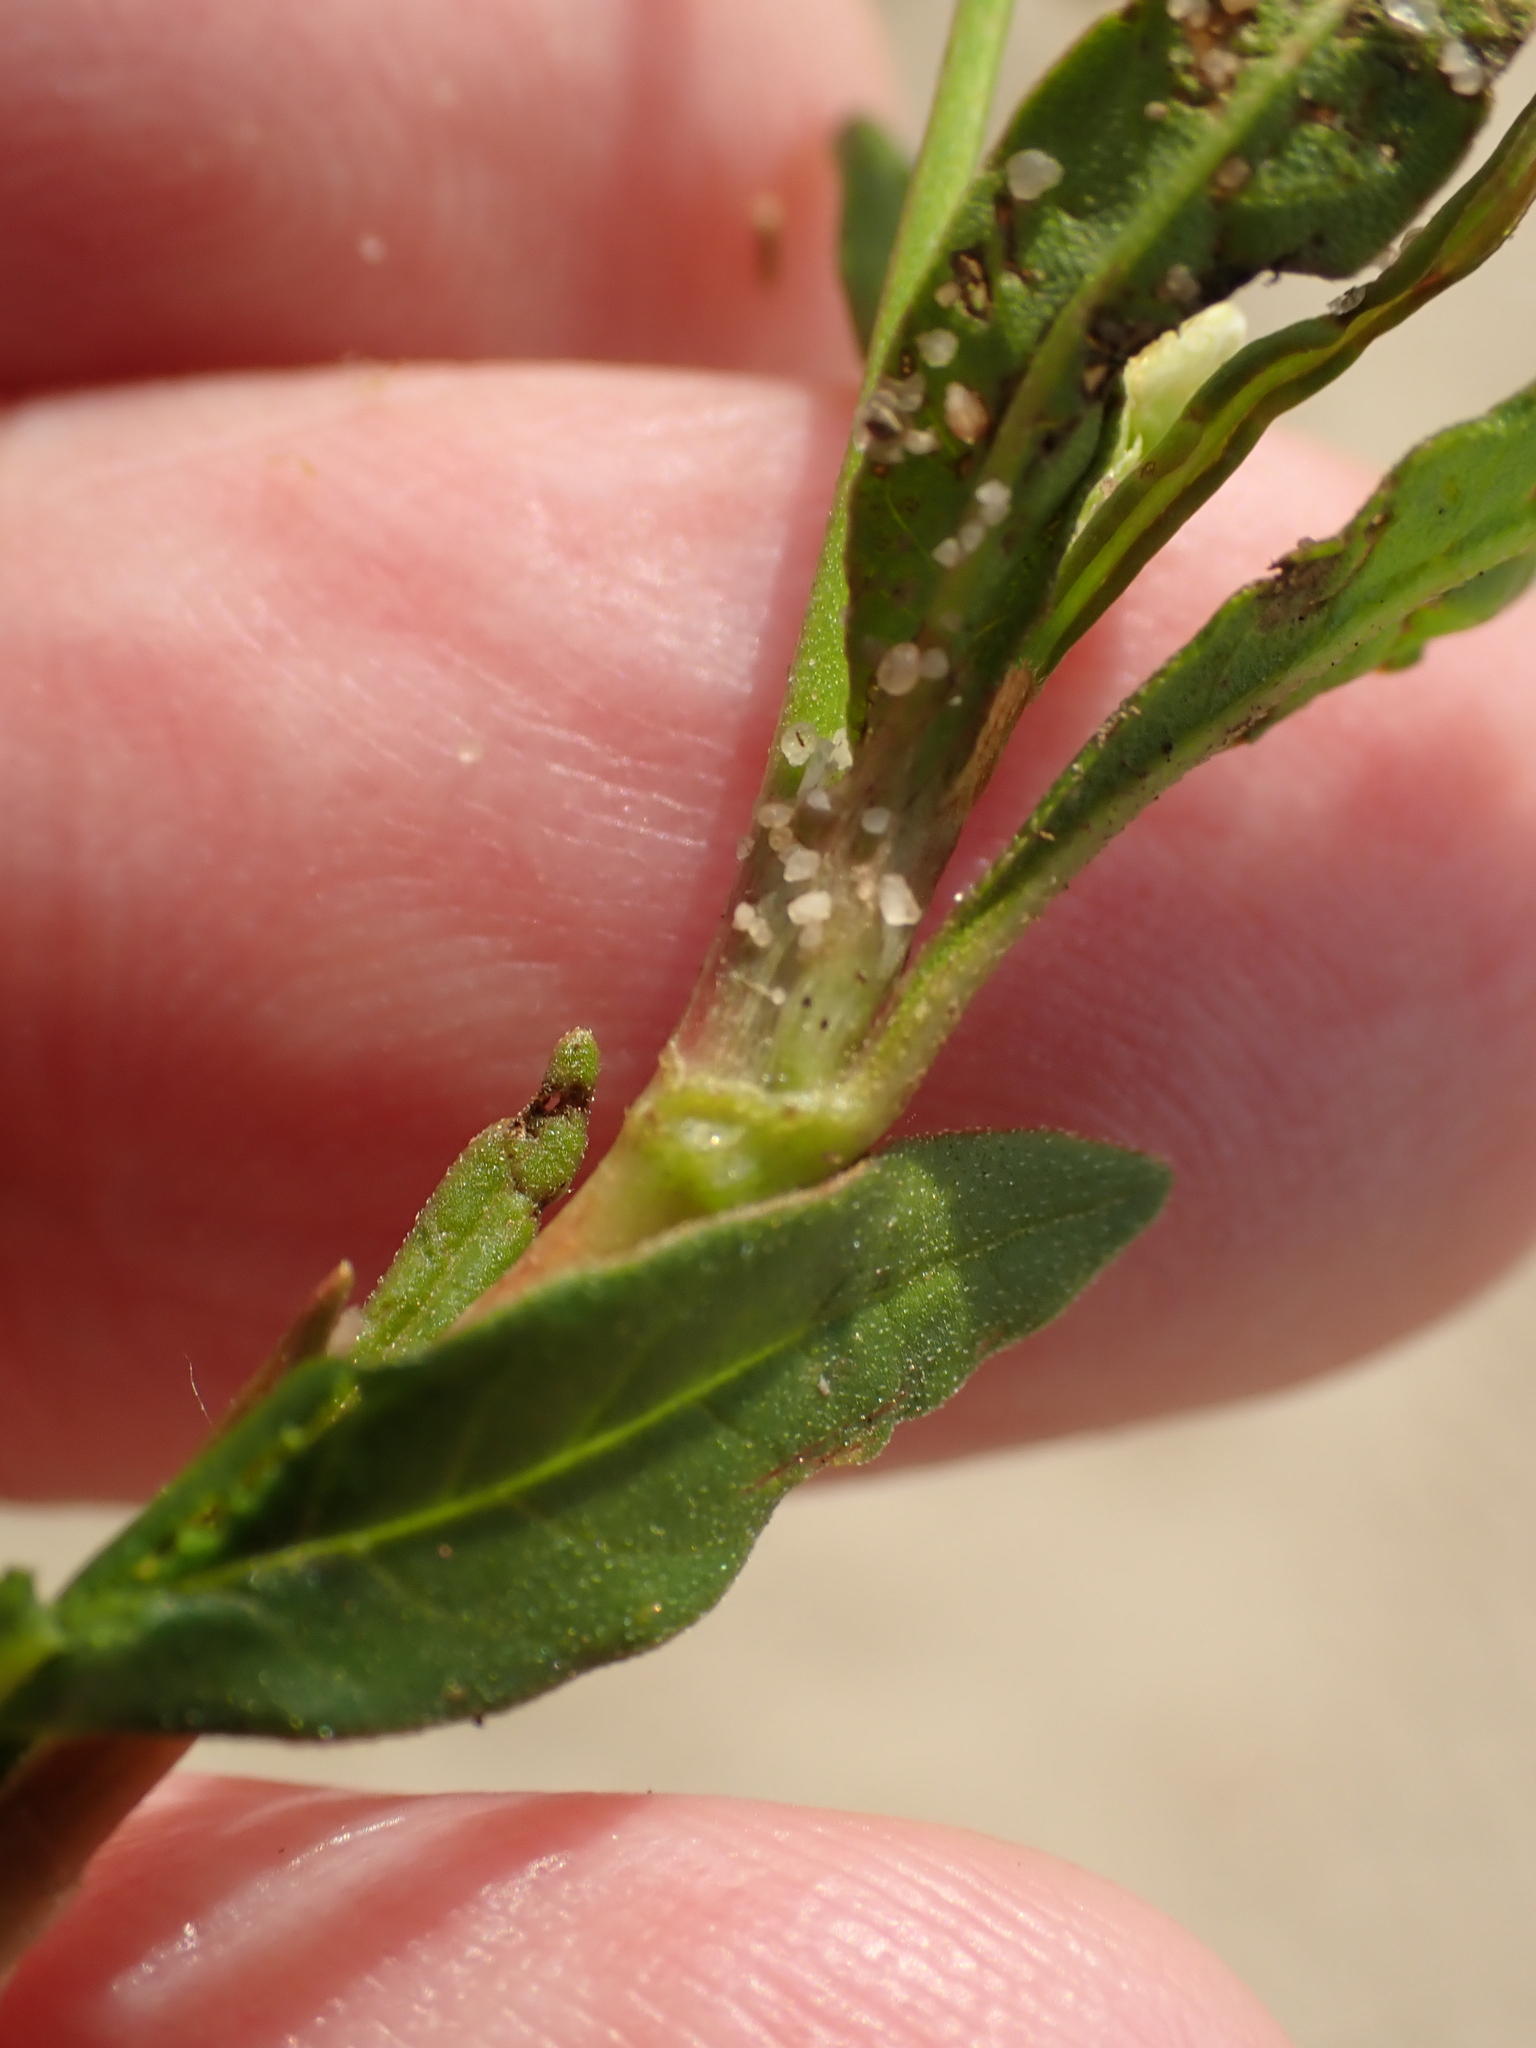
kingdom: Plantae
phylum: Tracheophyta
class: Magnoliopsida
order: Caryophyllales
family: Polygonaceae
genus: Persicaria
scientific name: Persicaria lapathifolia
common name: Curlytop knotweed
